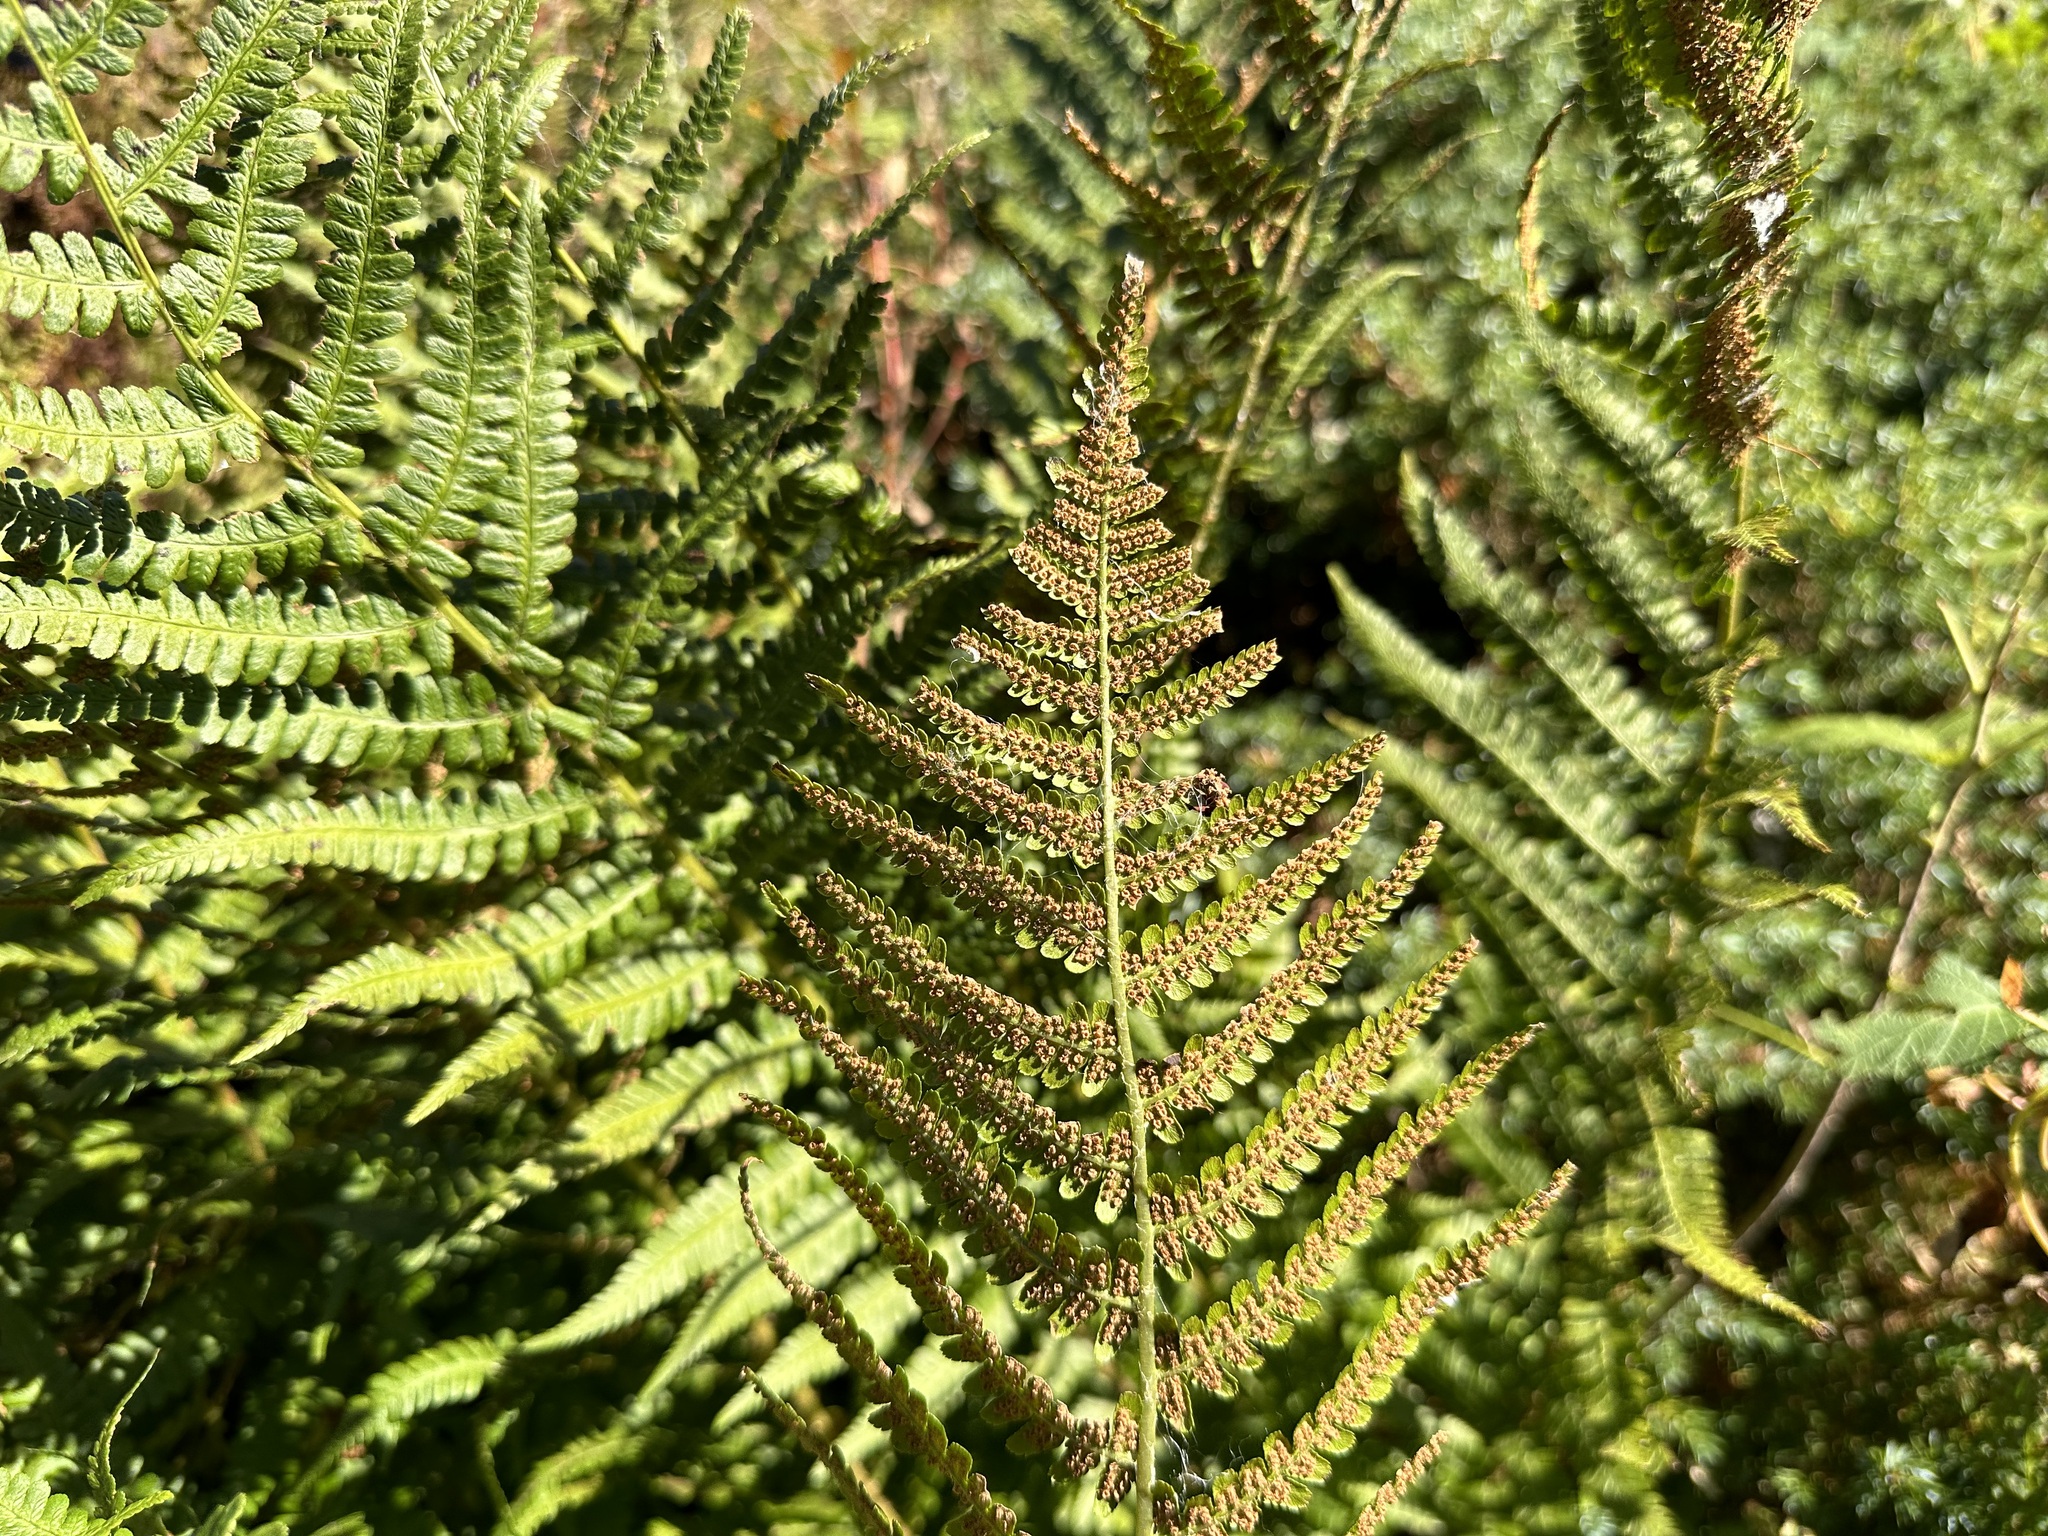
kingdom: Plantae
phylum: Tracheophyta
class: Polypodiopsida
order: Polypodiales
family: Dryopteridaceae
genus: Dryopteris
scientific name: Dryopteris filix-mas
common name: Male fern
